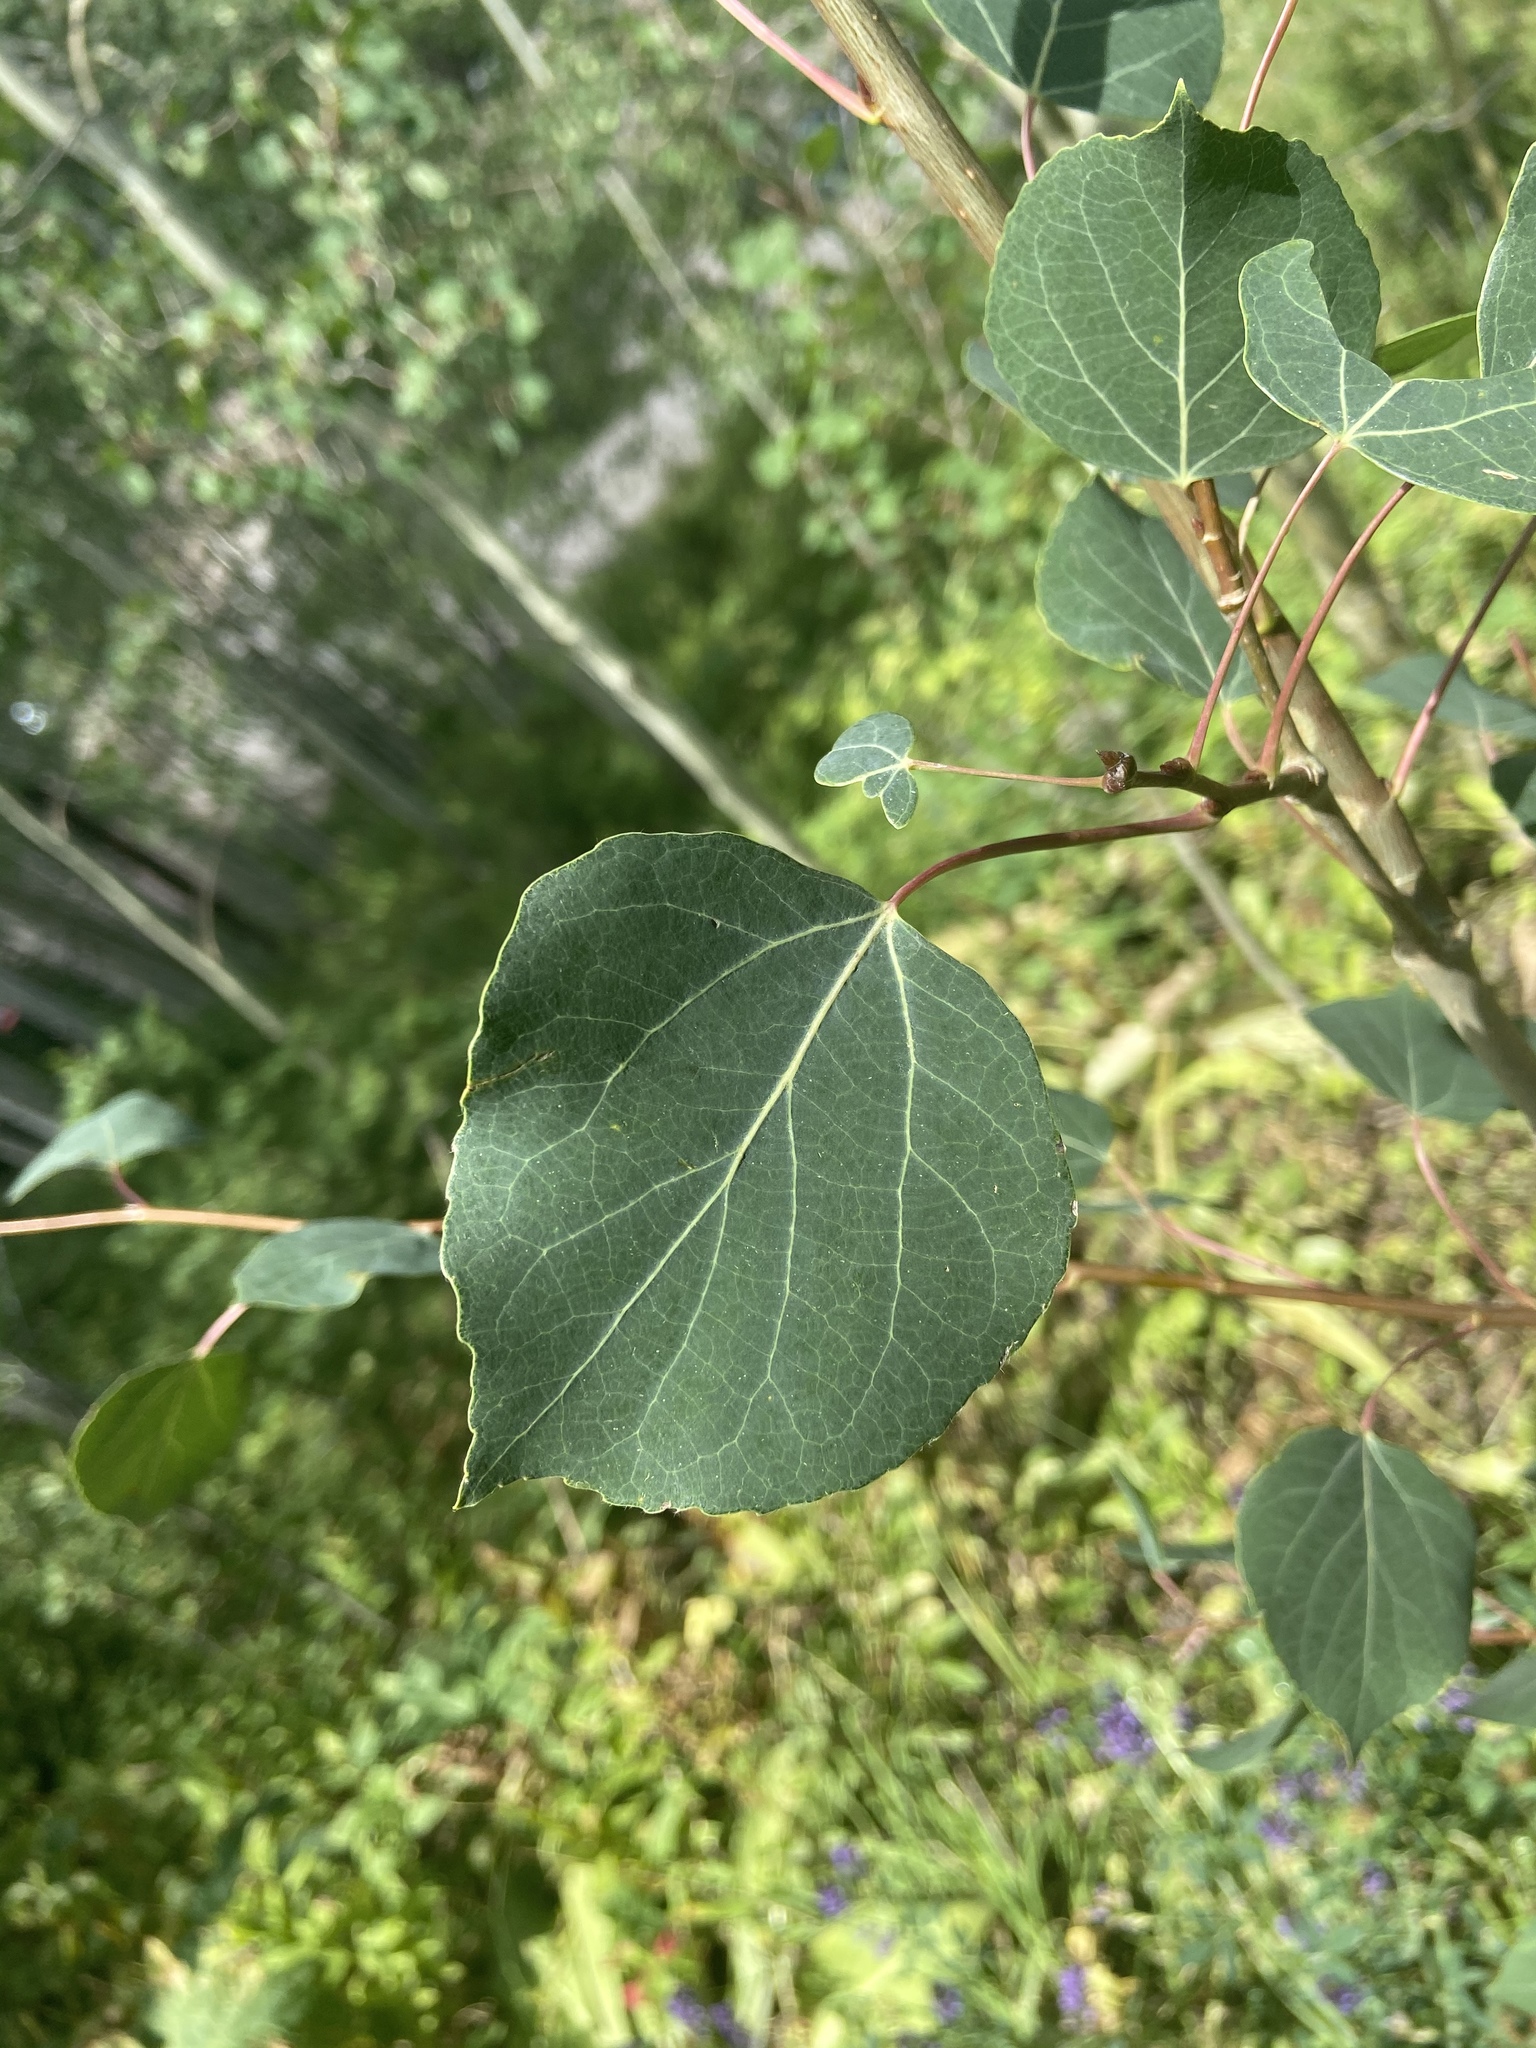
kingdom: Plantae
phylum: Tracheophyta
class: Magnoliopsida
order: Malpighiales
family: Salicaceae
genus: Populus
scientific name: Populus tremuloides
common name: Quaking aspen
